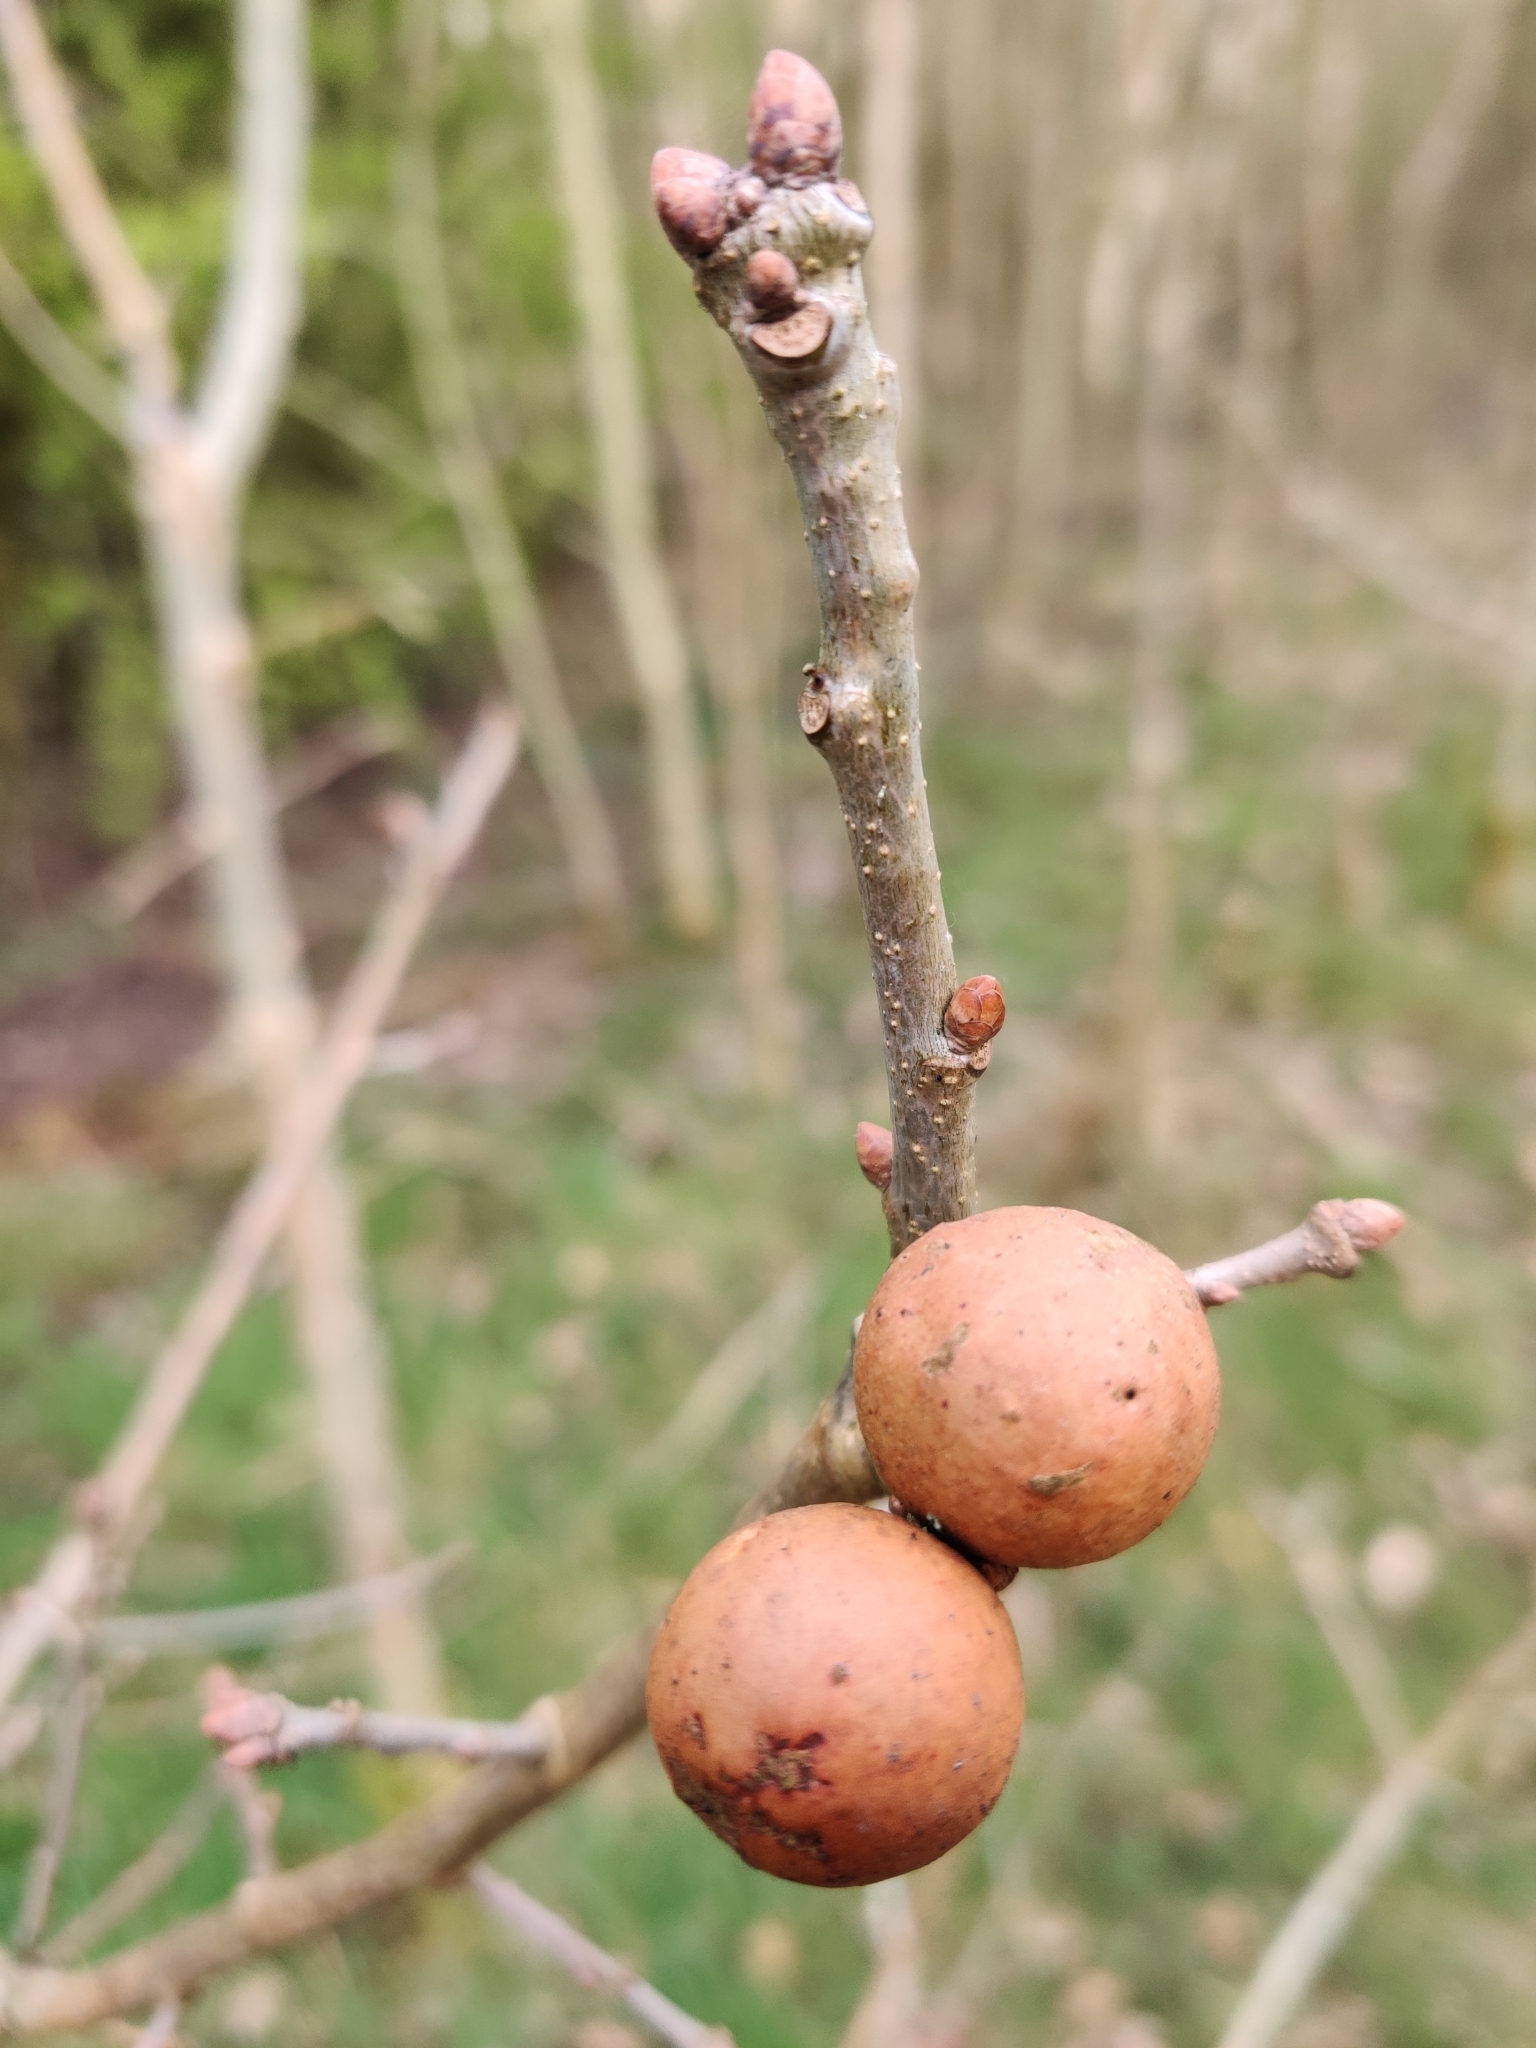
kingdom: Animalia
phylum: Arthropoda
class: Insecta
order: Hymenoptera
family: Cynipidae
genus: Andricus
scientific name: Andricus kollari
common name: Marble gall
